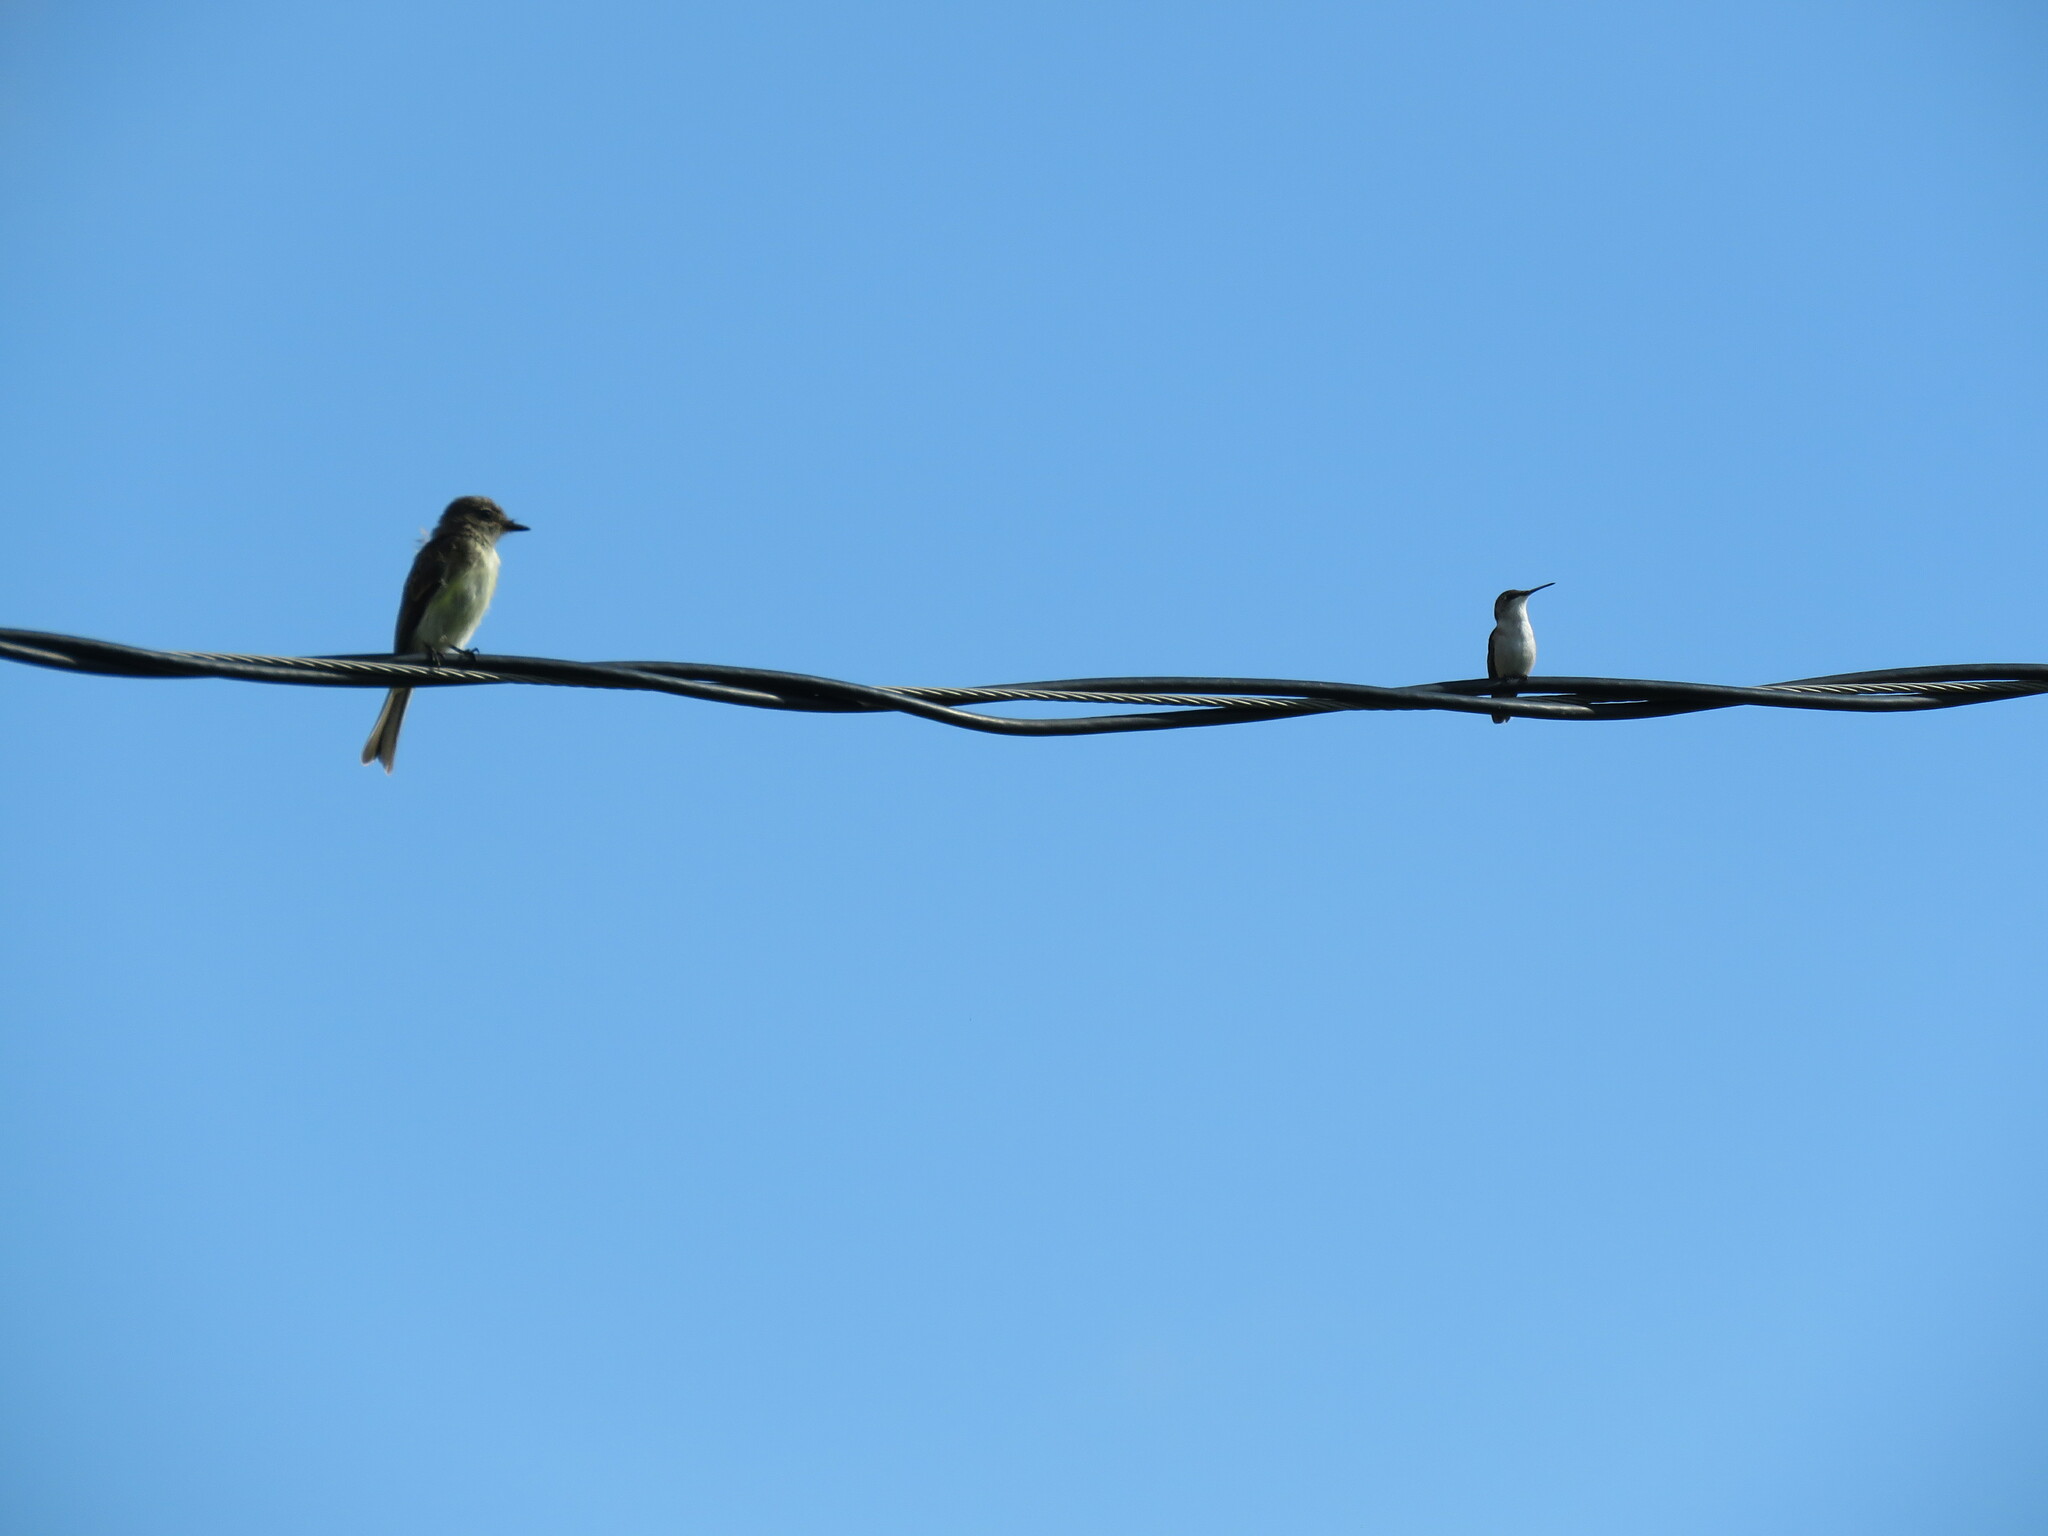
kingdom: Animalia
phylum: Chordata
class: Aves
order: Apodiformes
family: Trochilidae
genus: Archilochus
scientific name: Archilochus colubris
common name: Ruby-throated hummingbird
